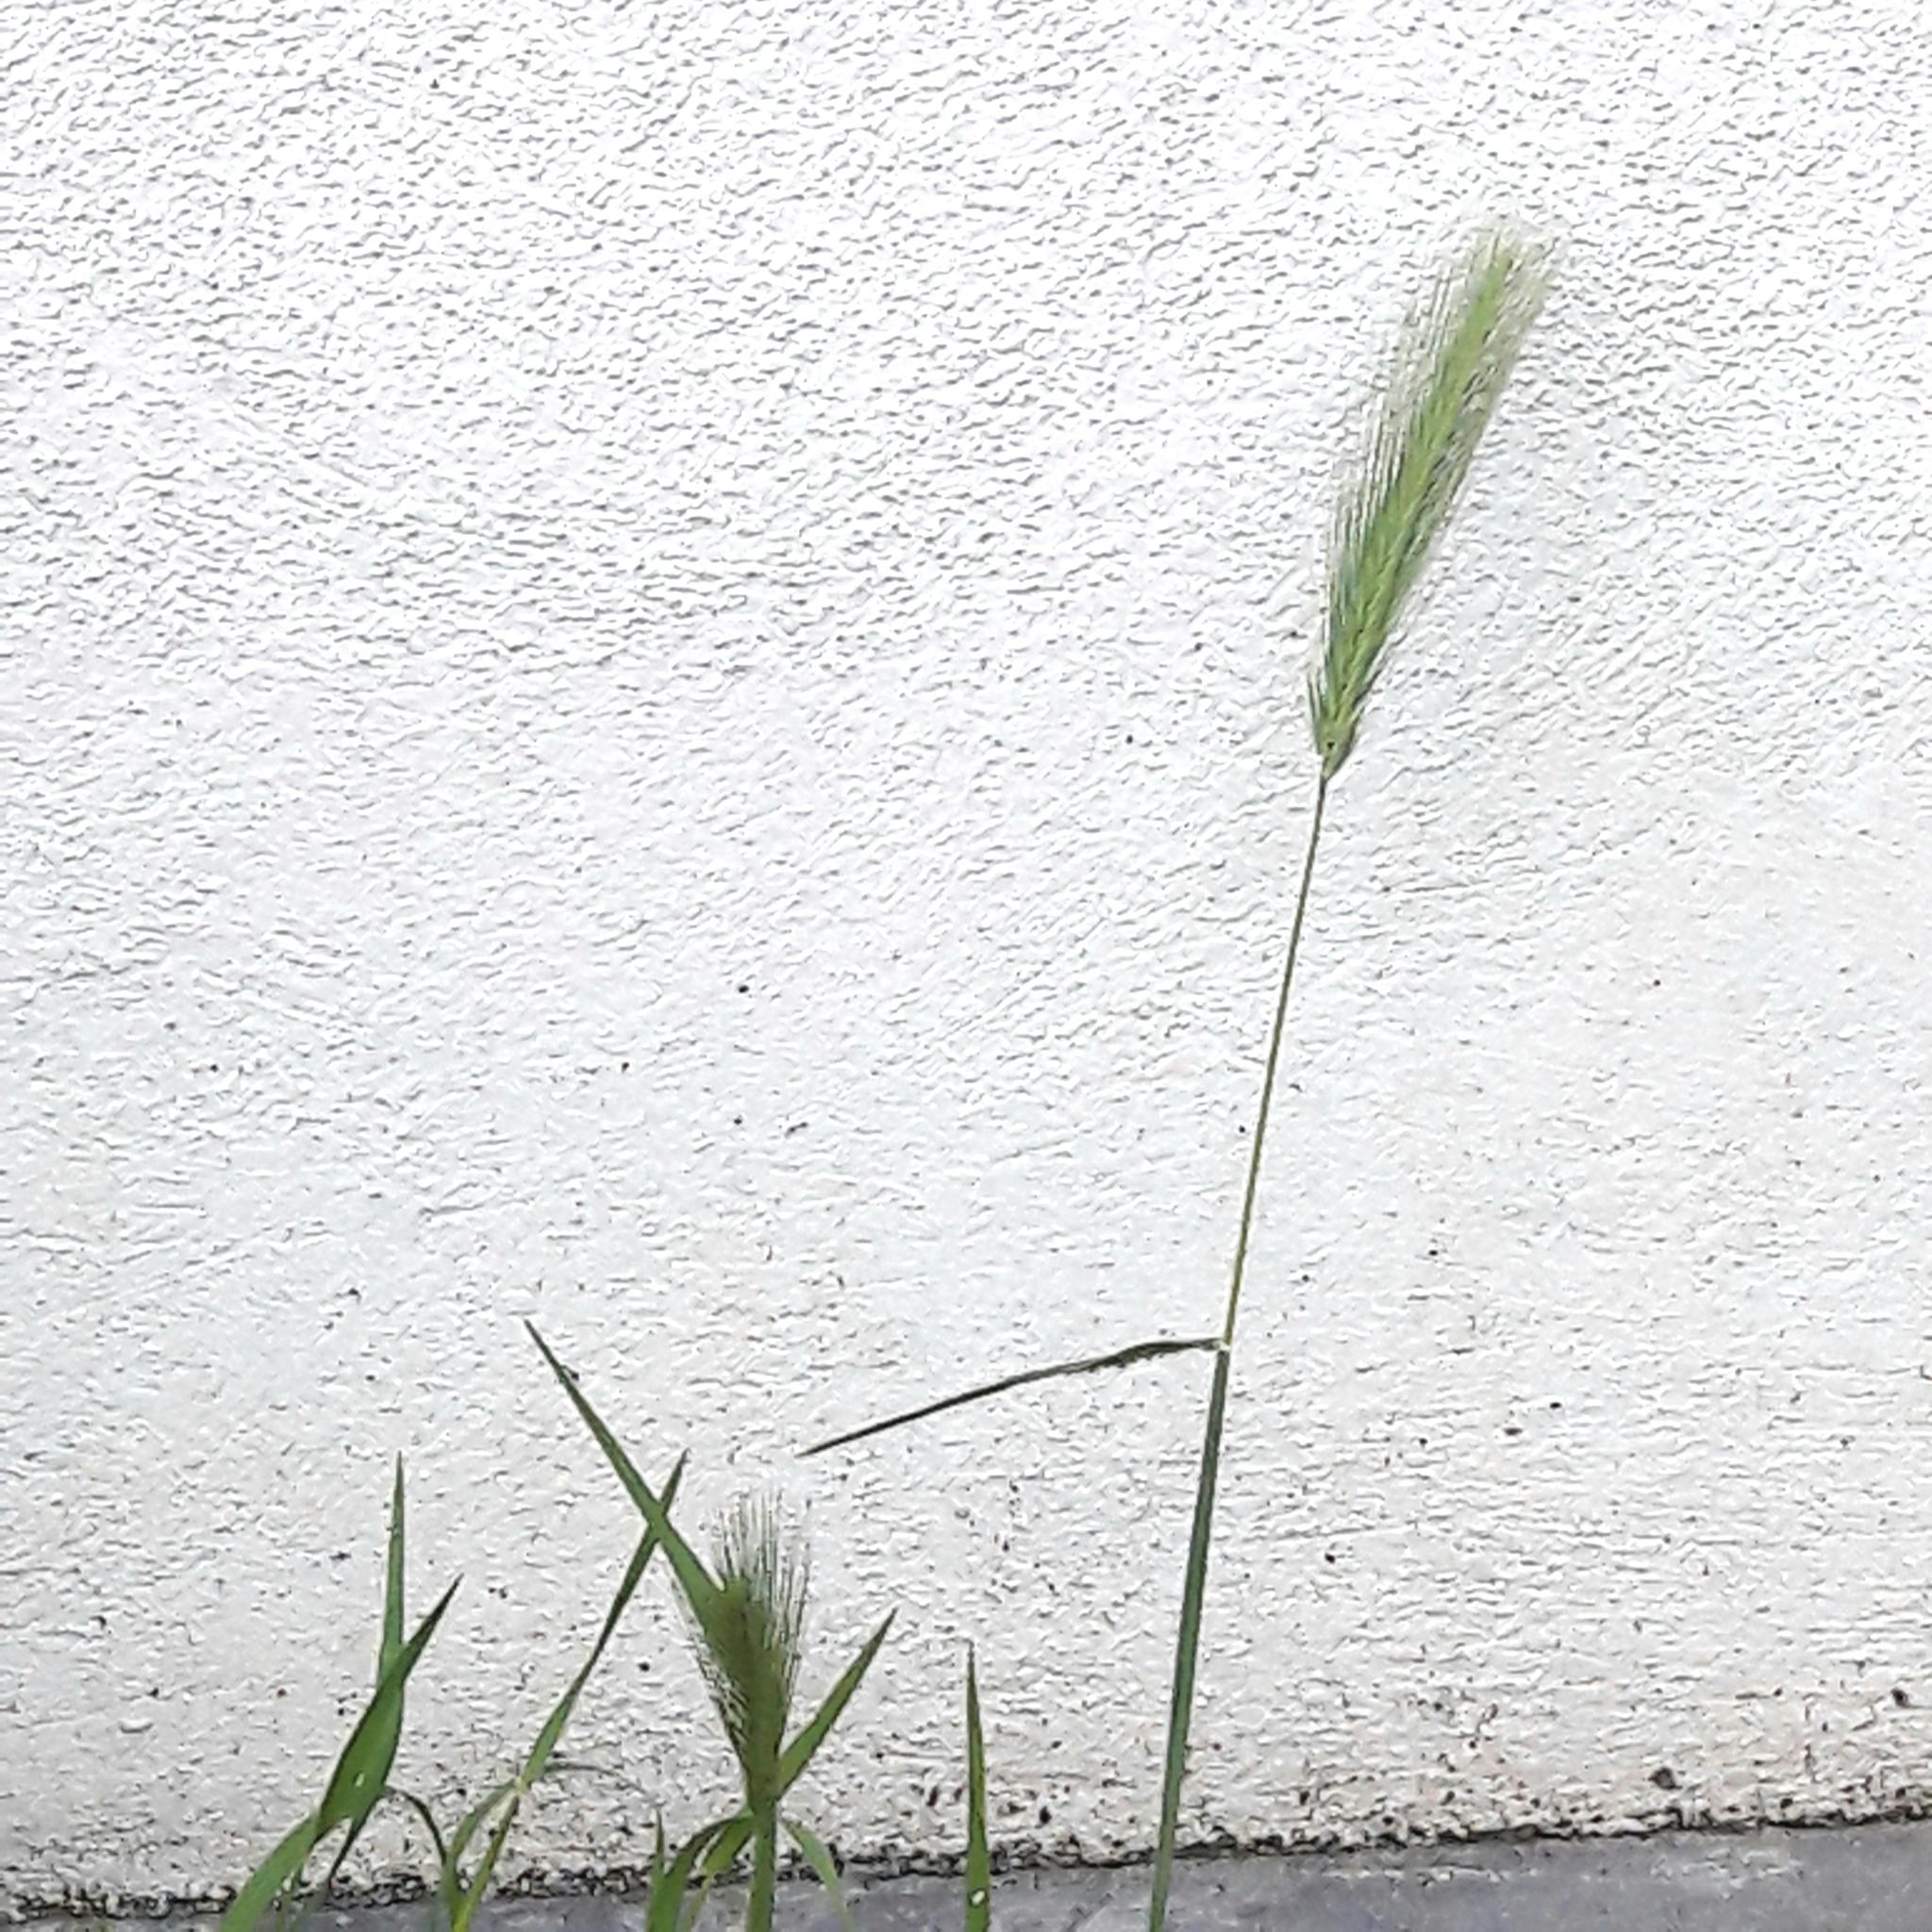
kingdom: Plantae
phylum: Tracheophyta
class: Liliopsida
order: Poales
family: Poaceae
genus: Hordeum
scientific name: Hordeum murinum
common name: Wall barley
